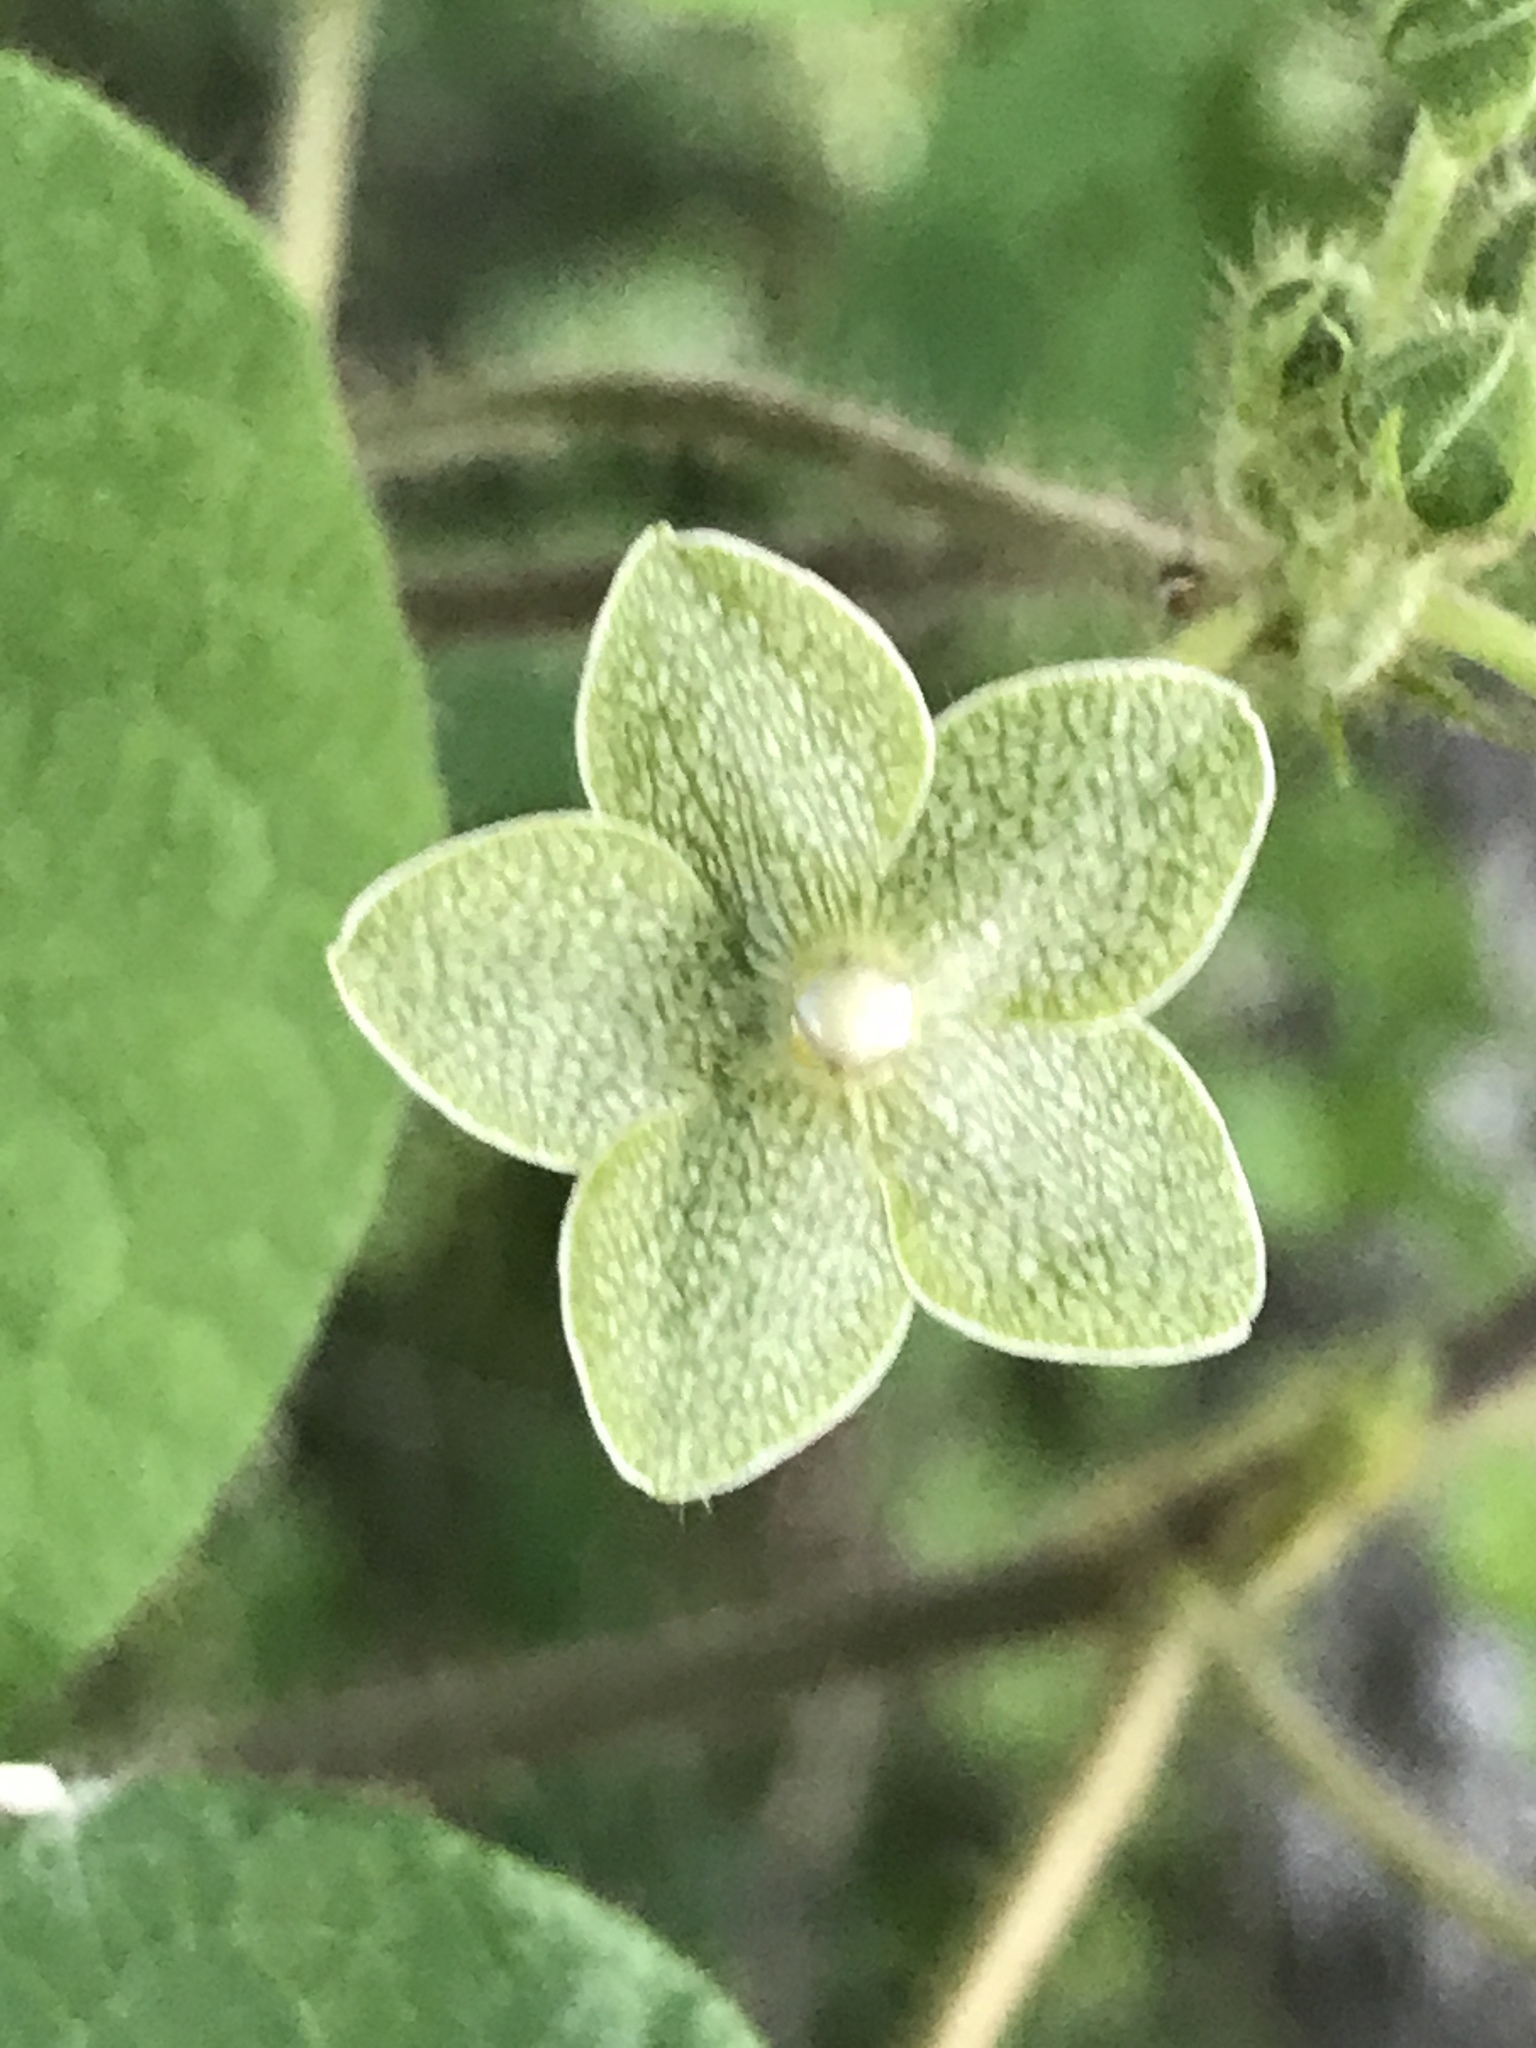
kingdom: Plantae
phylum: Tracheophyta
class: Magnoliopsida
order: Gentianales
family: Apocynaceae
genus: Dictyanthus
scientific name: Dictyanthus reticulatus
